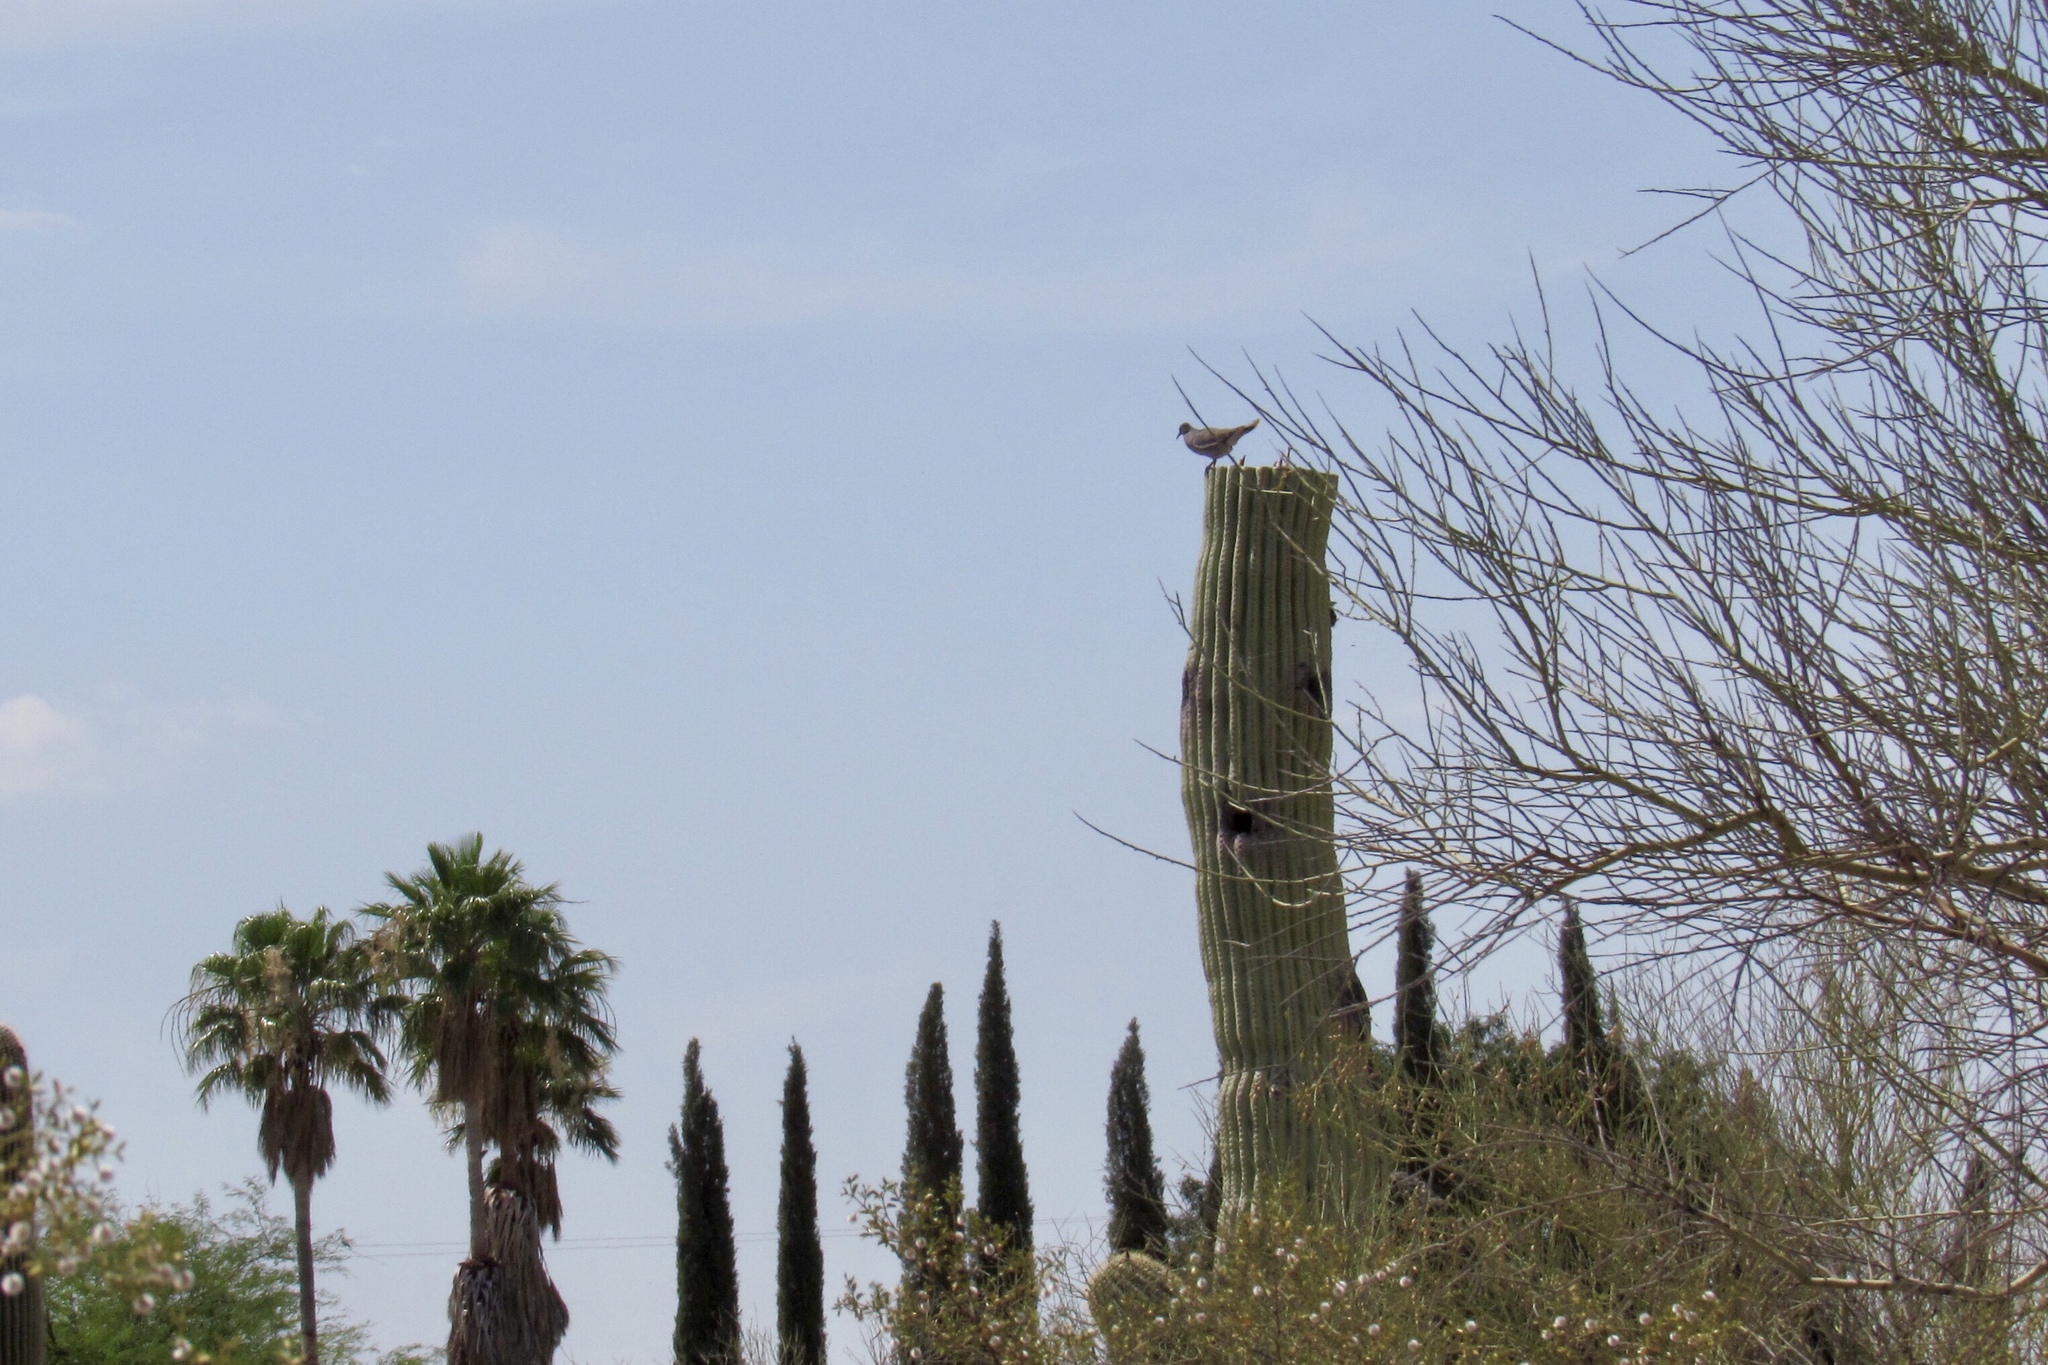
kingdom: Animalia
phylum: Chordata
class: Aves
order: Columbiformes
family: Columbidae
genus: Zenaida
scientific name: Zenaida asiatica
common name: White-winged dove
